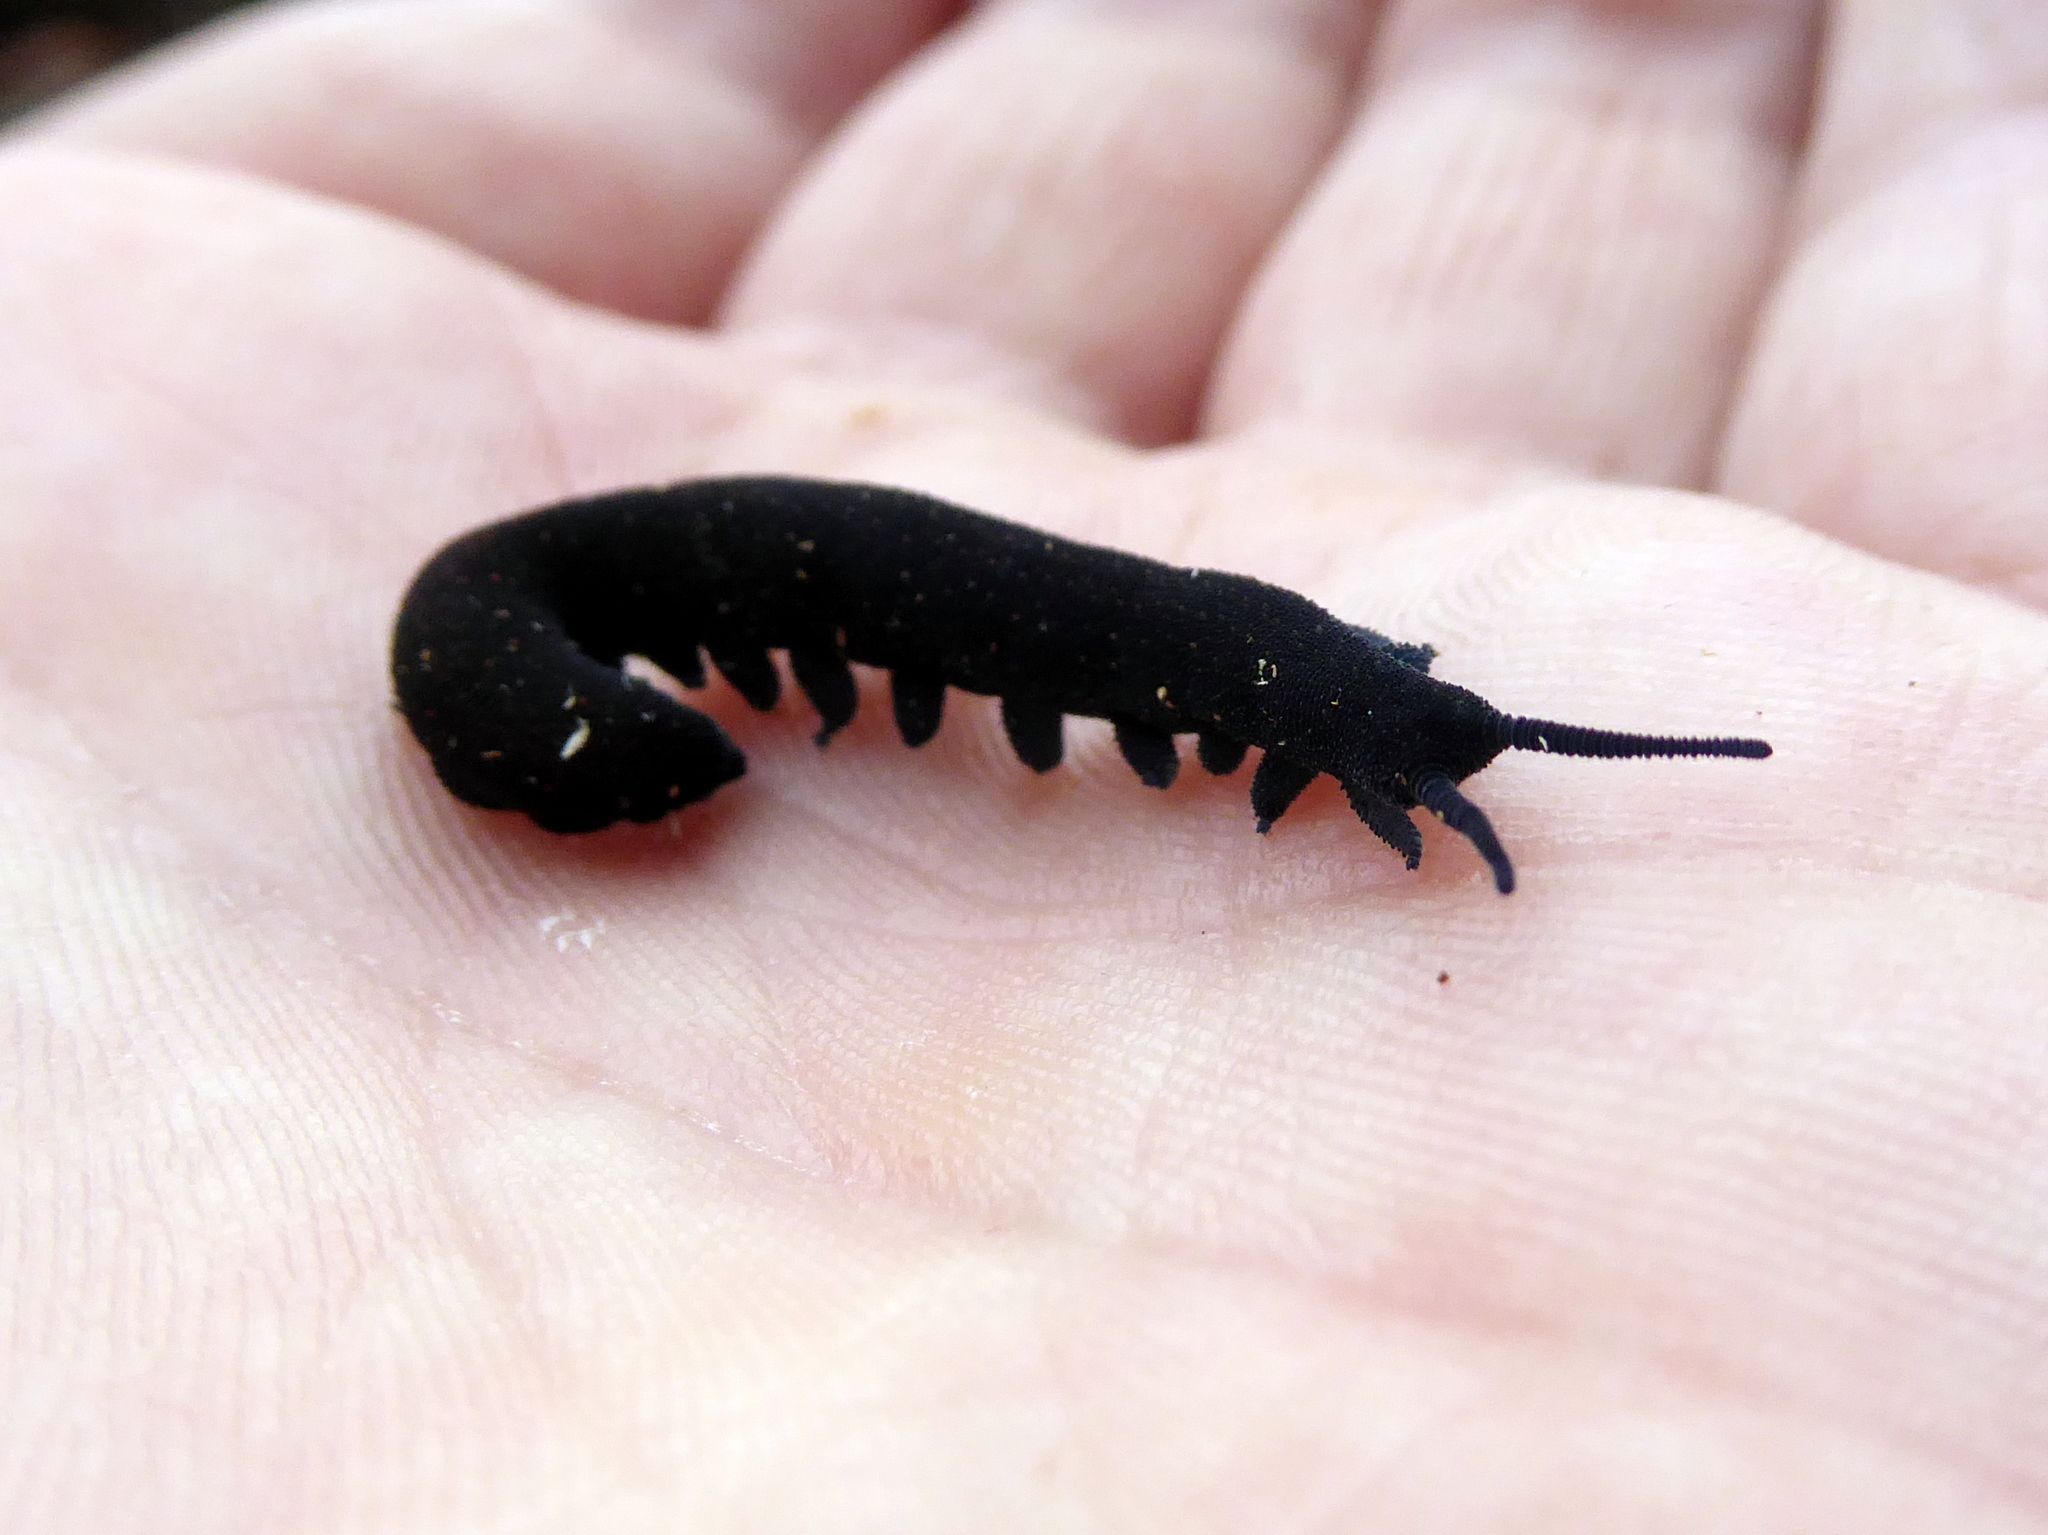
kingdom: Animalia
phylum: Onychophora
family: Peripatopsidae
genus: Euperipatoides
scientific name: Euperipatoides rowelli
